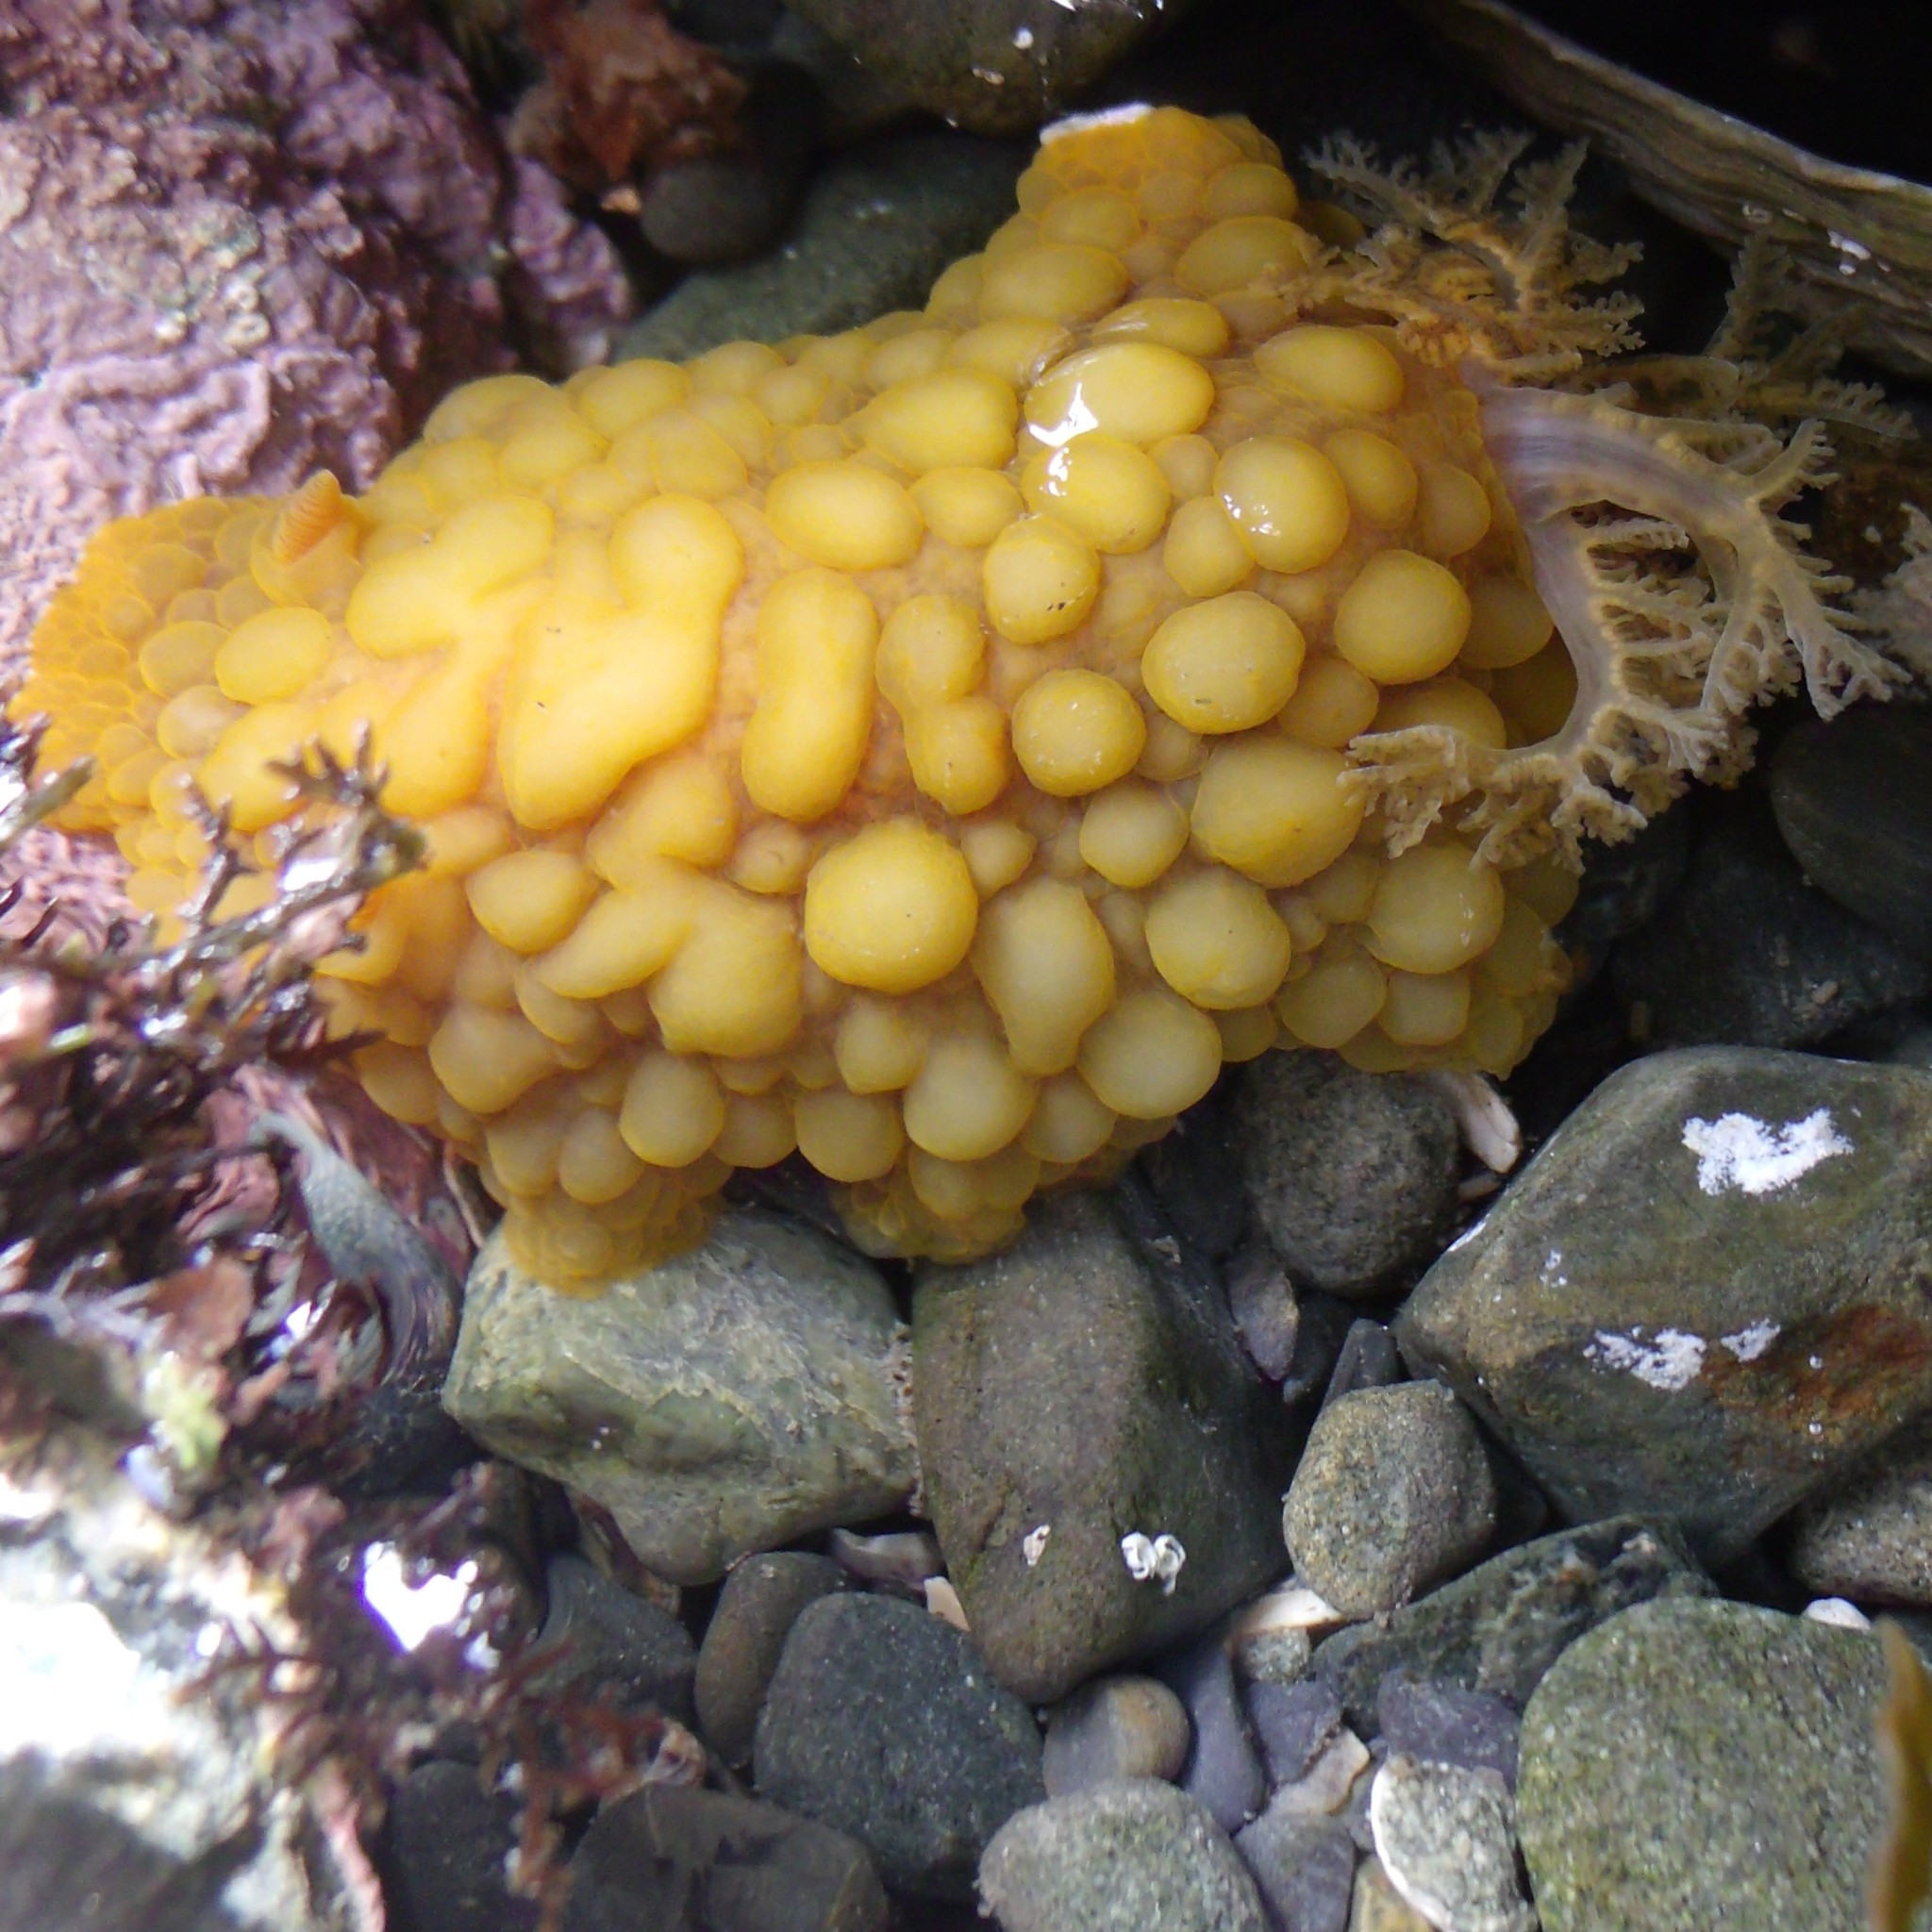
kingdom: Animalia
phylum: Mollusca
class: Gastropoda
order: Nudibranchia
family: Dorididae
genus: Doris
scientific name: Doris wellingtonensis
